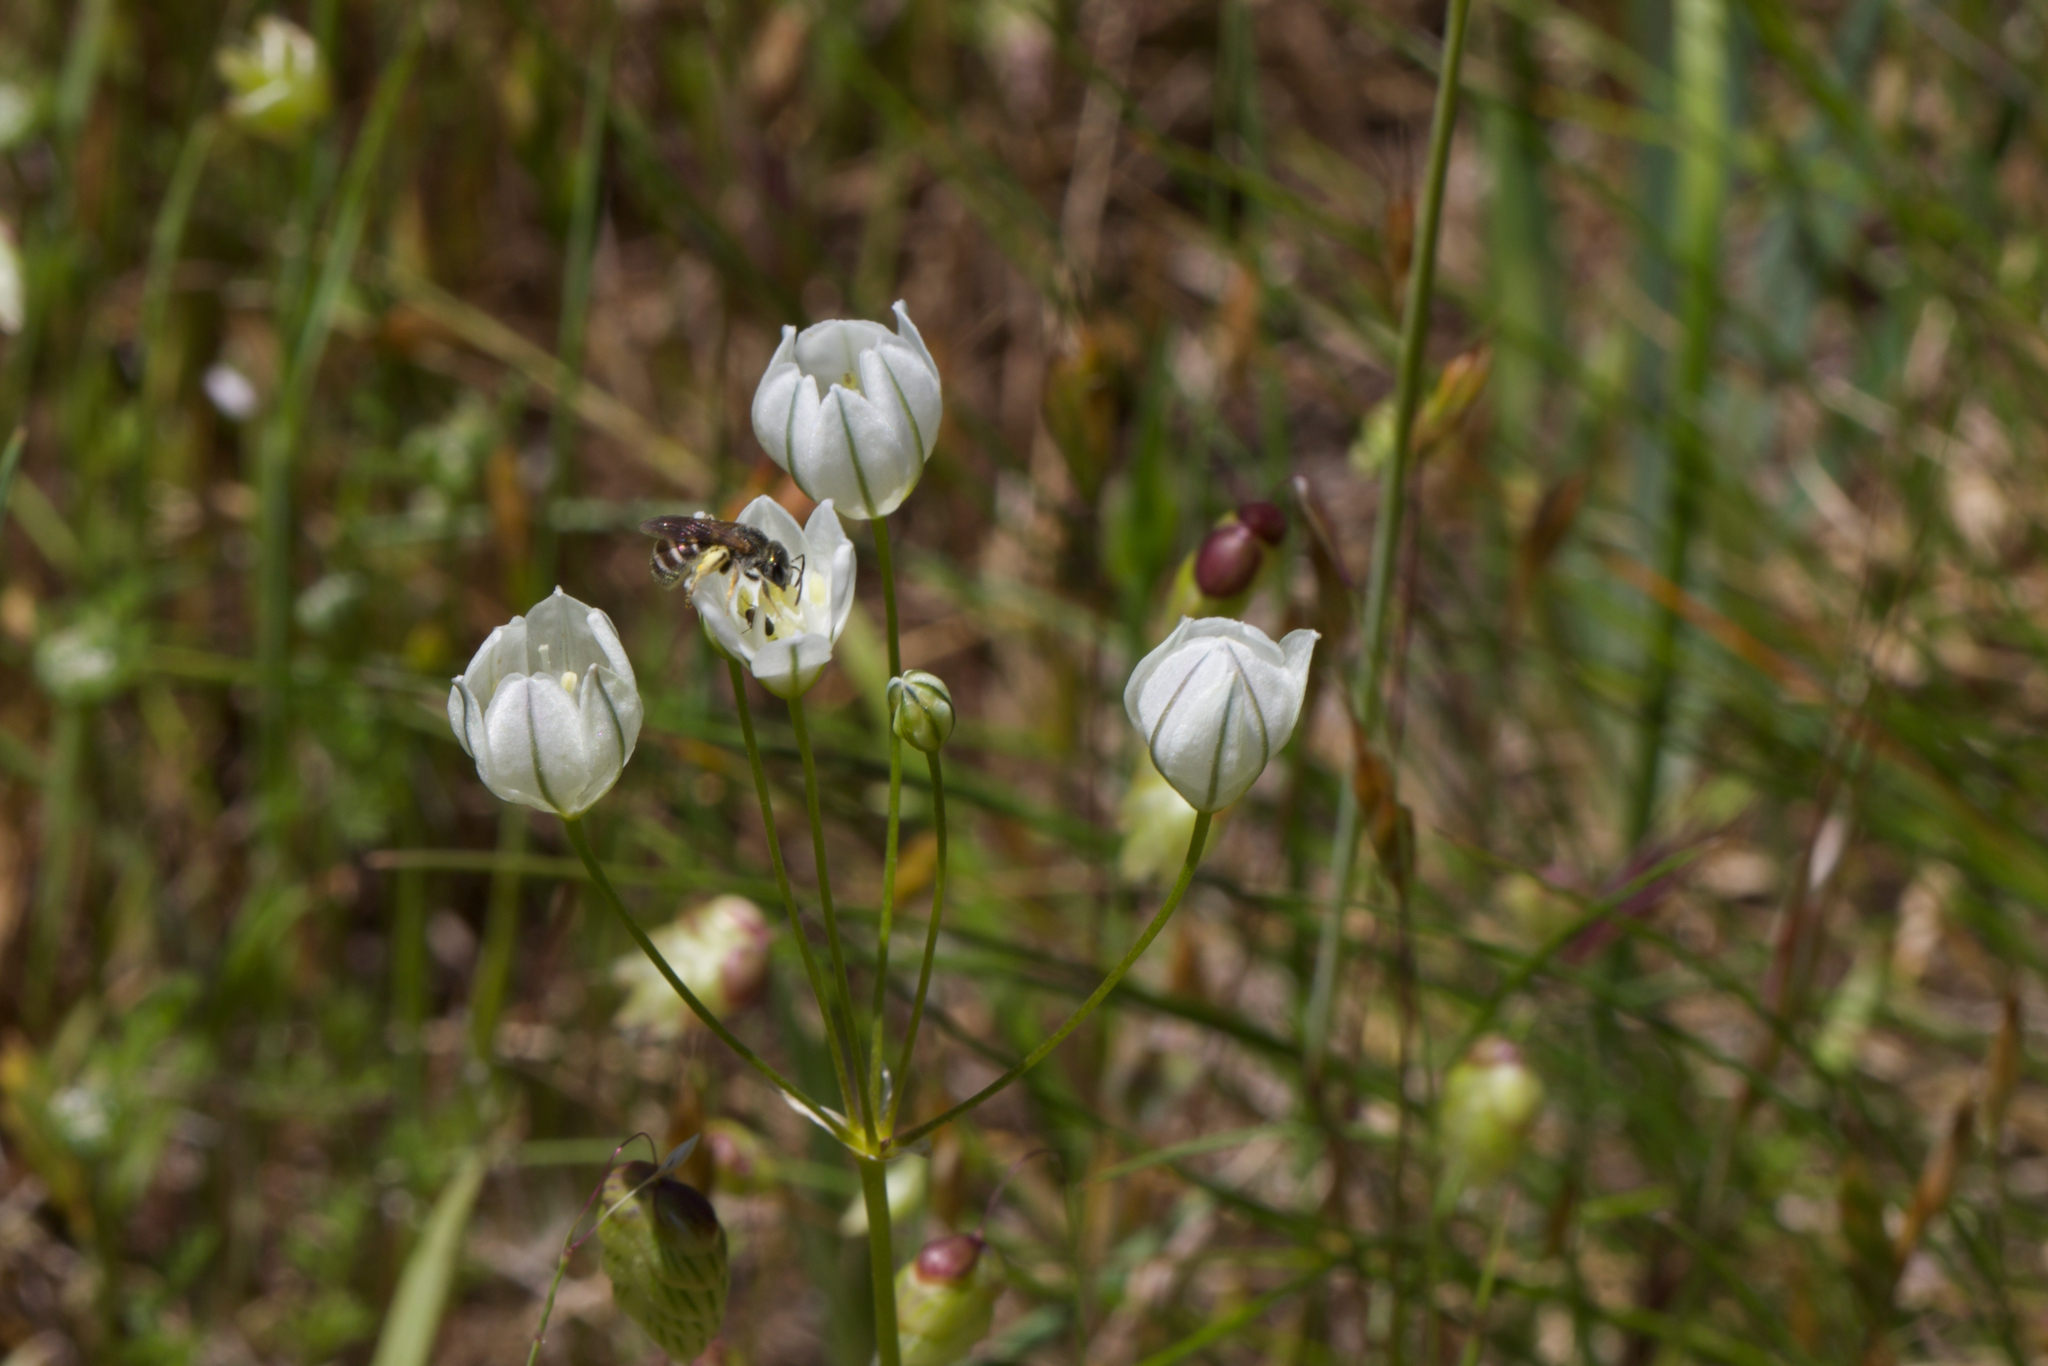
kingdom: Plantae
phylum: Tracheophyta
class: Liliopsida
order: Asparagales
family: Asparagaceae
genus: Triteleia
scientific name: Triteleia hyacinthina
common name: White brodiaea
